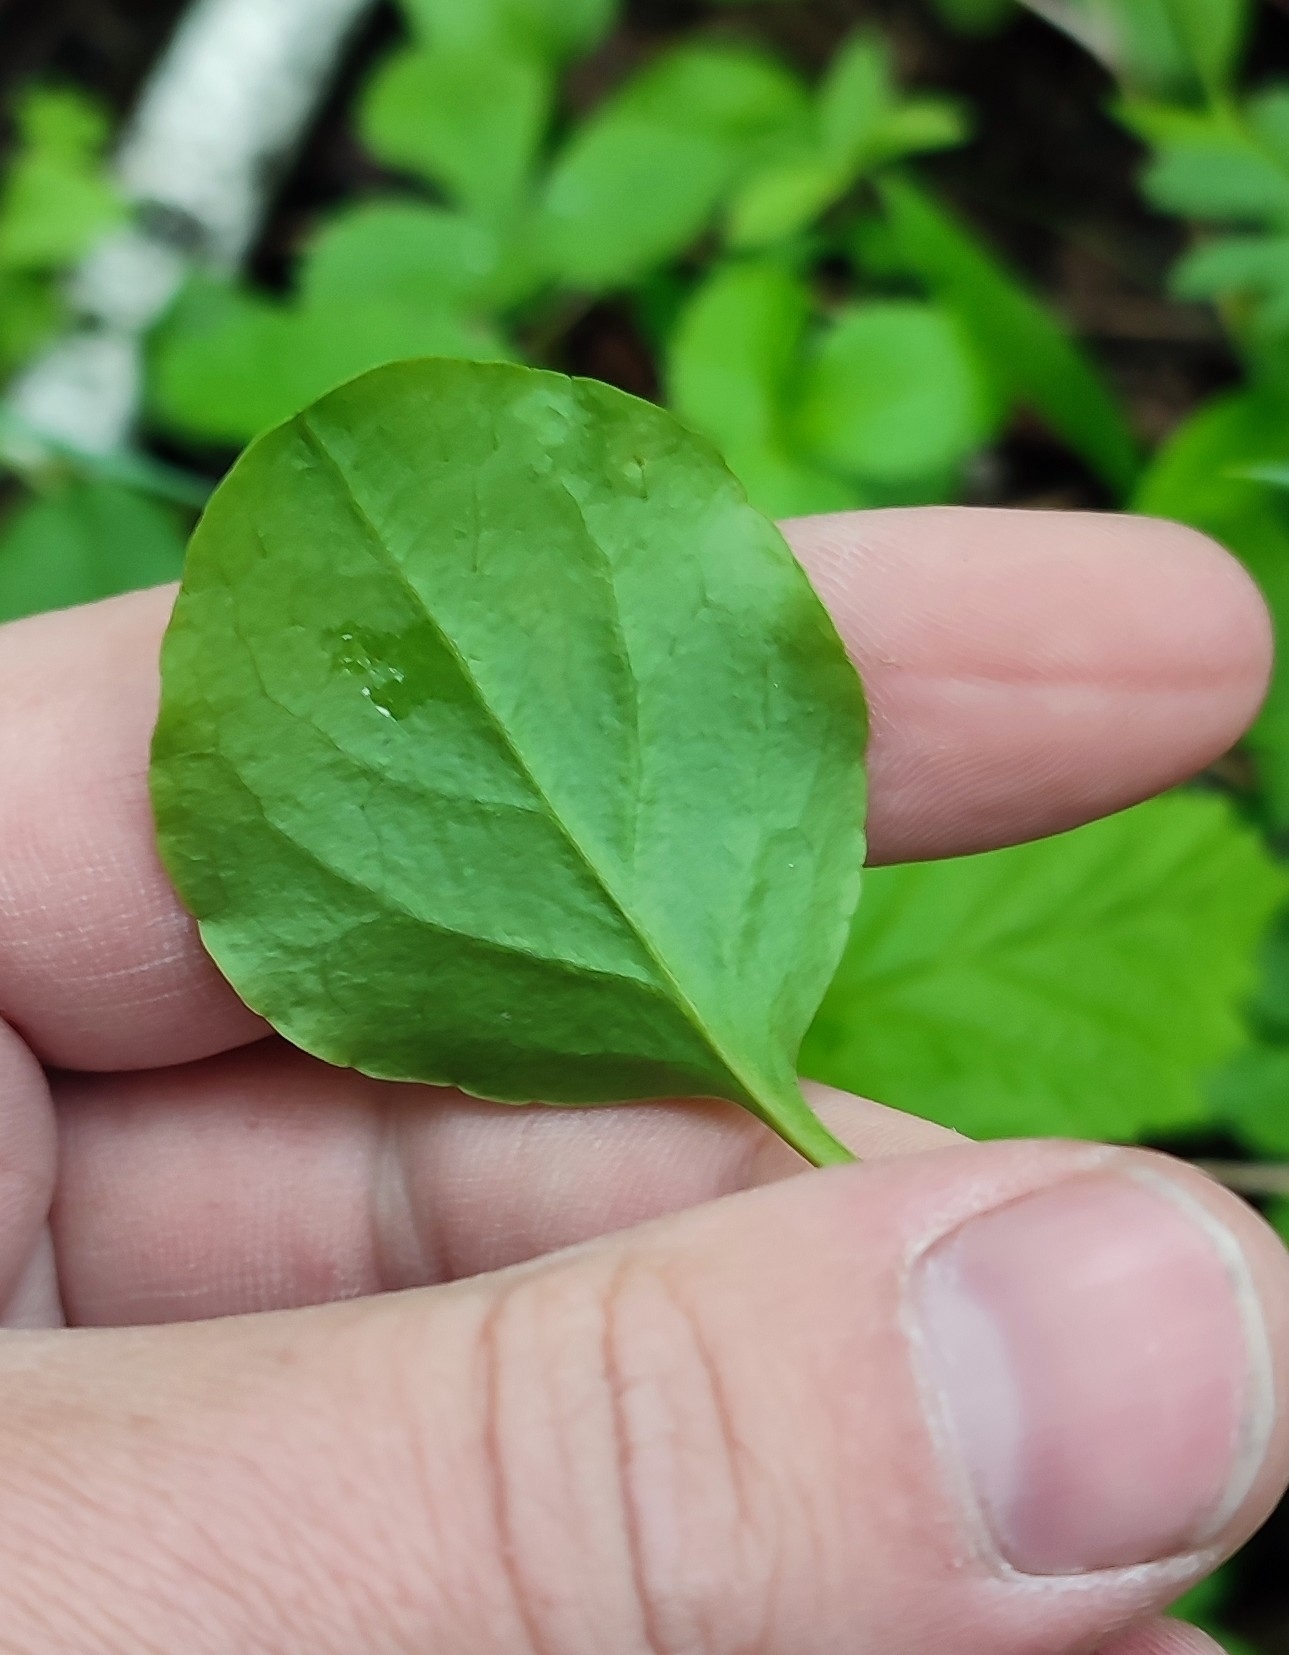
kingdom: Plantae
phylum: Tracheophyta
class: Magnoliopsida
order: Ericales
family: Ericaceae
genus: Pyrola
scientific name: Pyrola rotundifolia
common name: Round-leaved wintergreen
